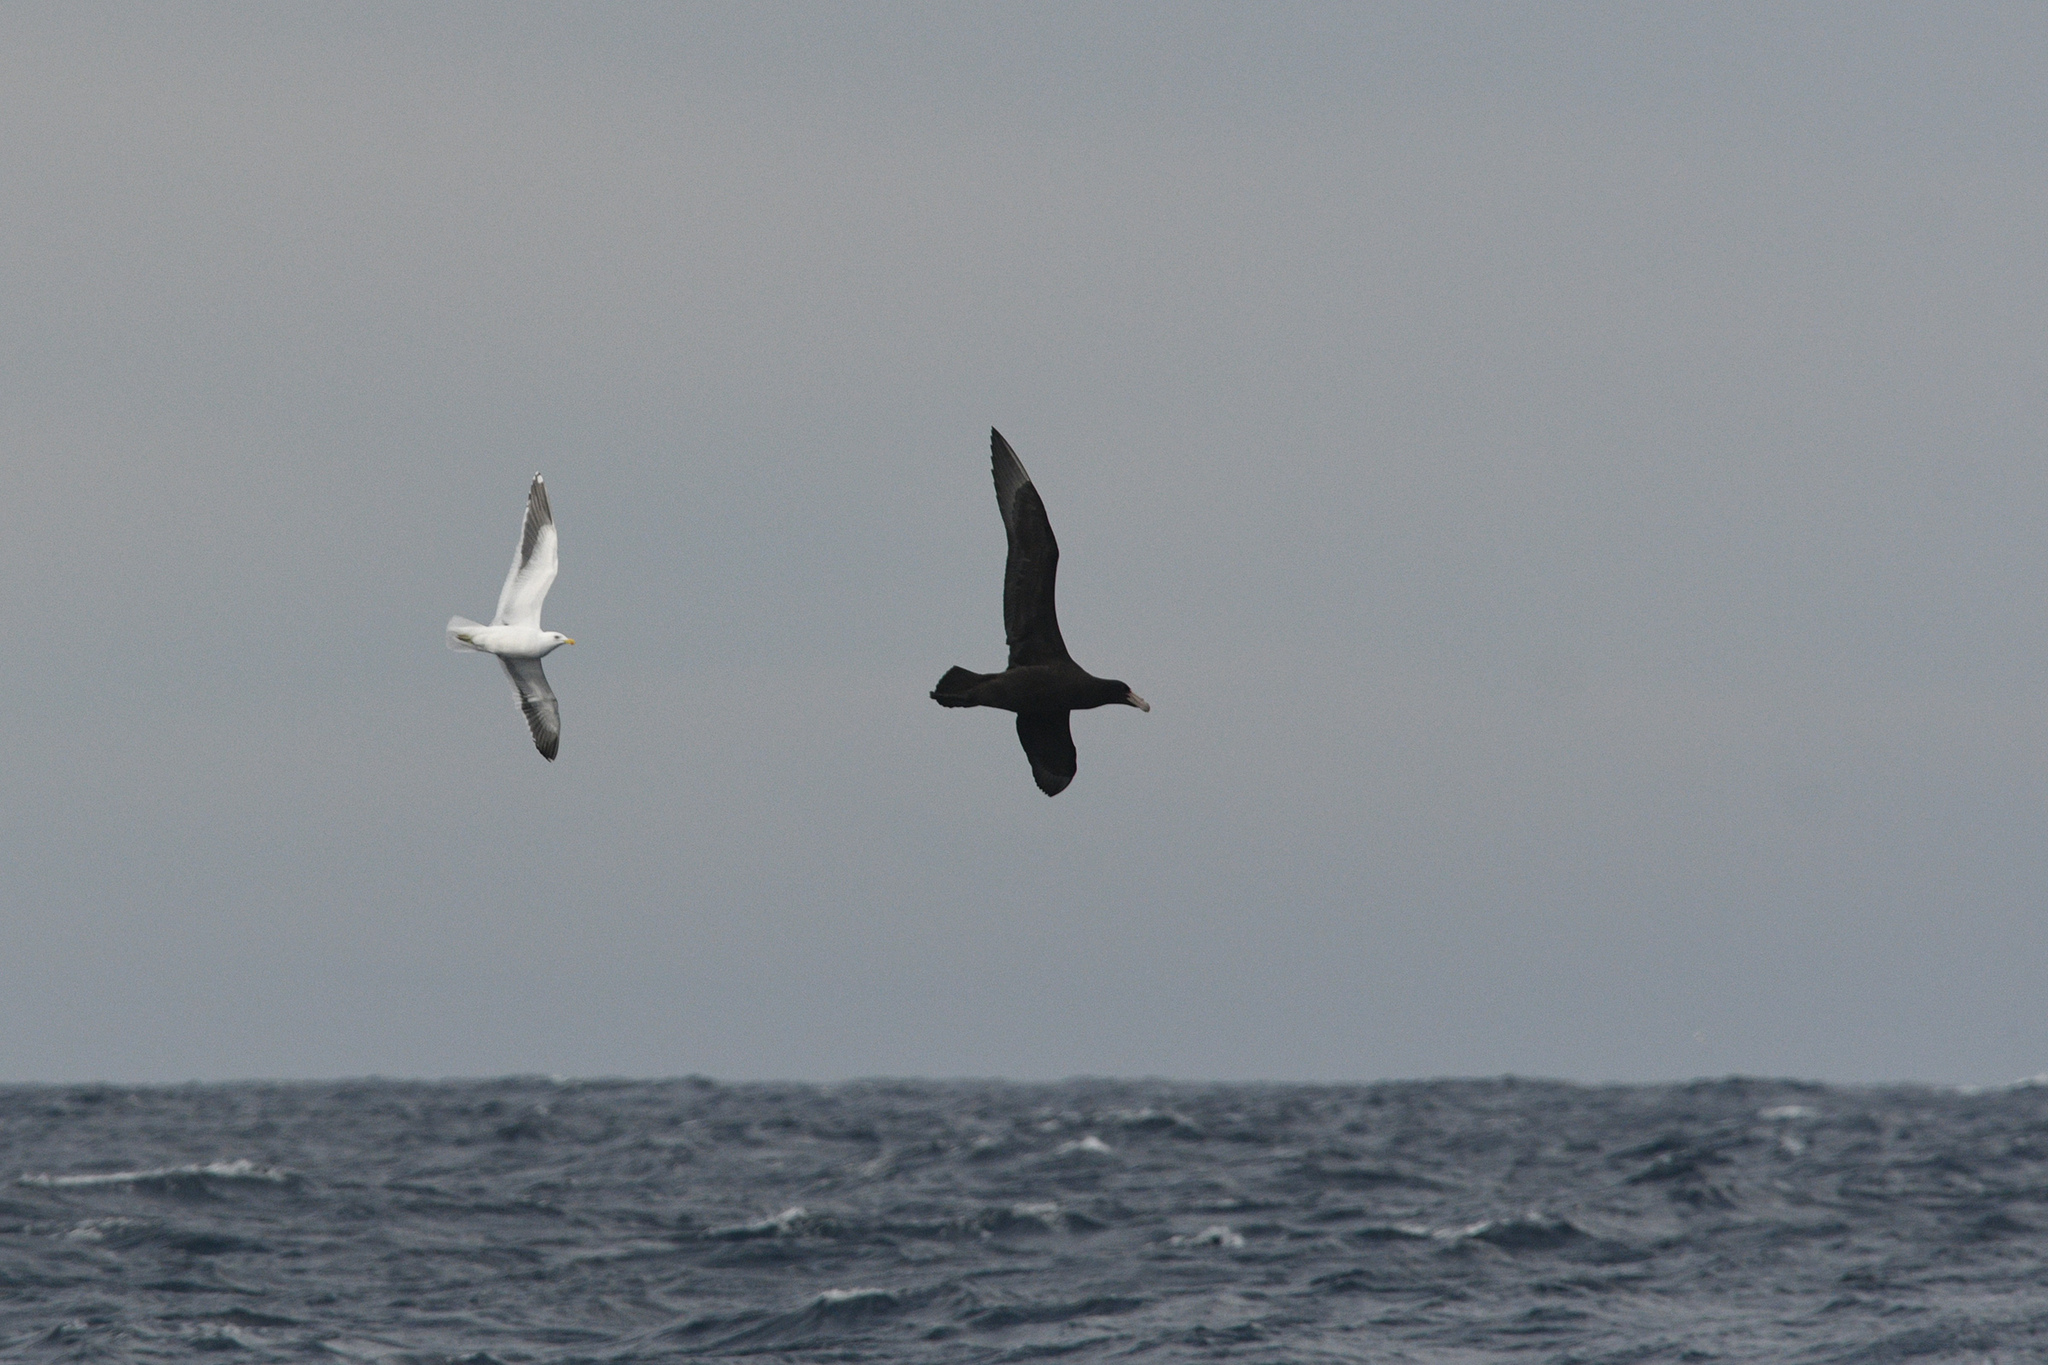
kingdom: Animalia
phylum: Chordata
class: Aves
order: Procellariiformes
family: Procellariidae
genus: Macronectes
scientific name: Macronectes giganteus
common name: Southern giant petrel
